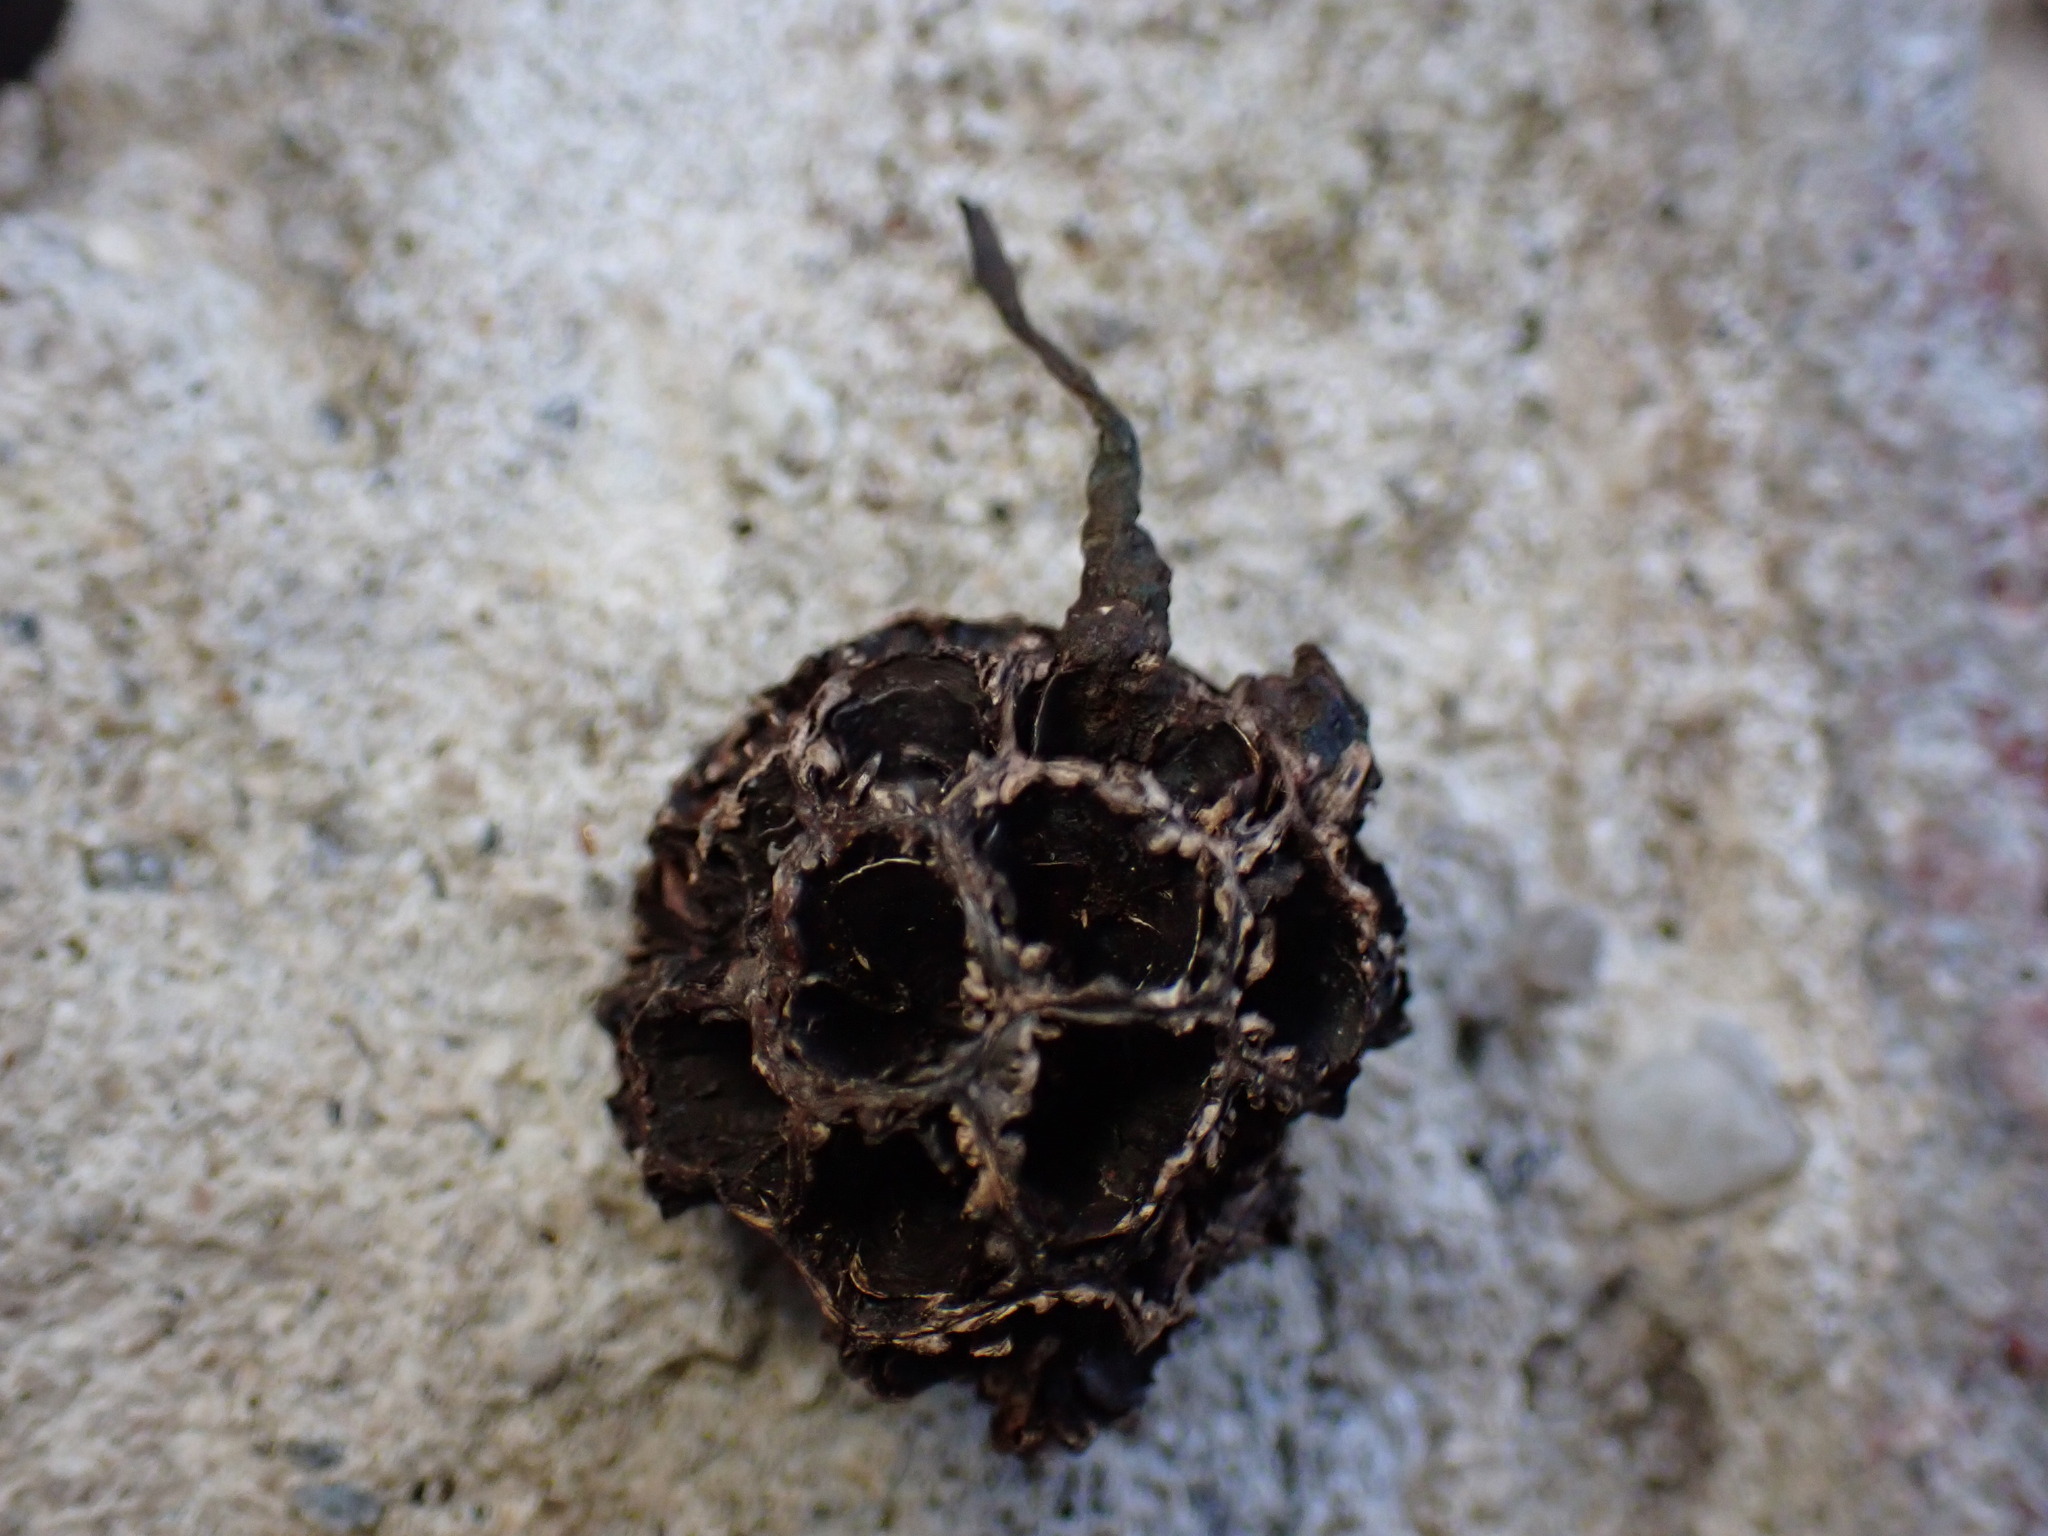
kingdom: Fungi
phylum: Ascomycota
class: Sordariomycetes
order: Xylariales
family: Xylariaceae
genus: Xylaria
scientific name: Xylaria liquidambaris
